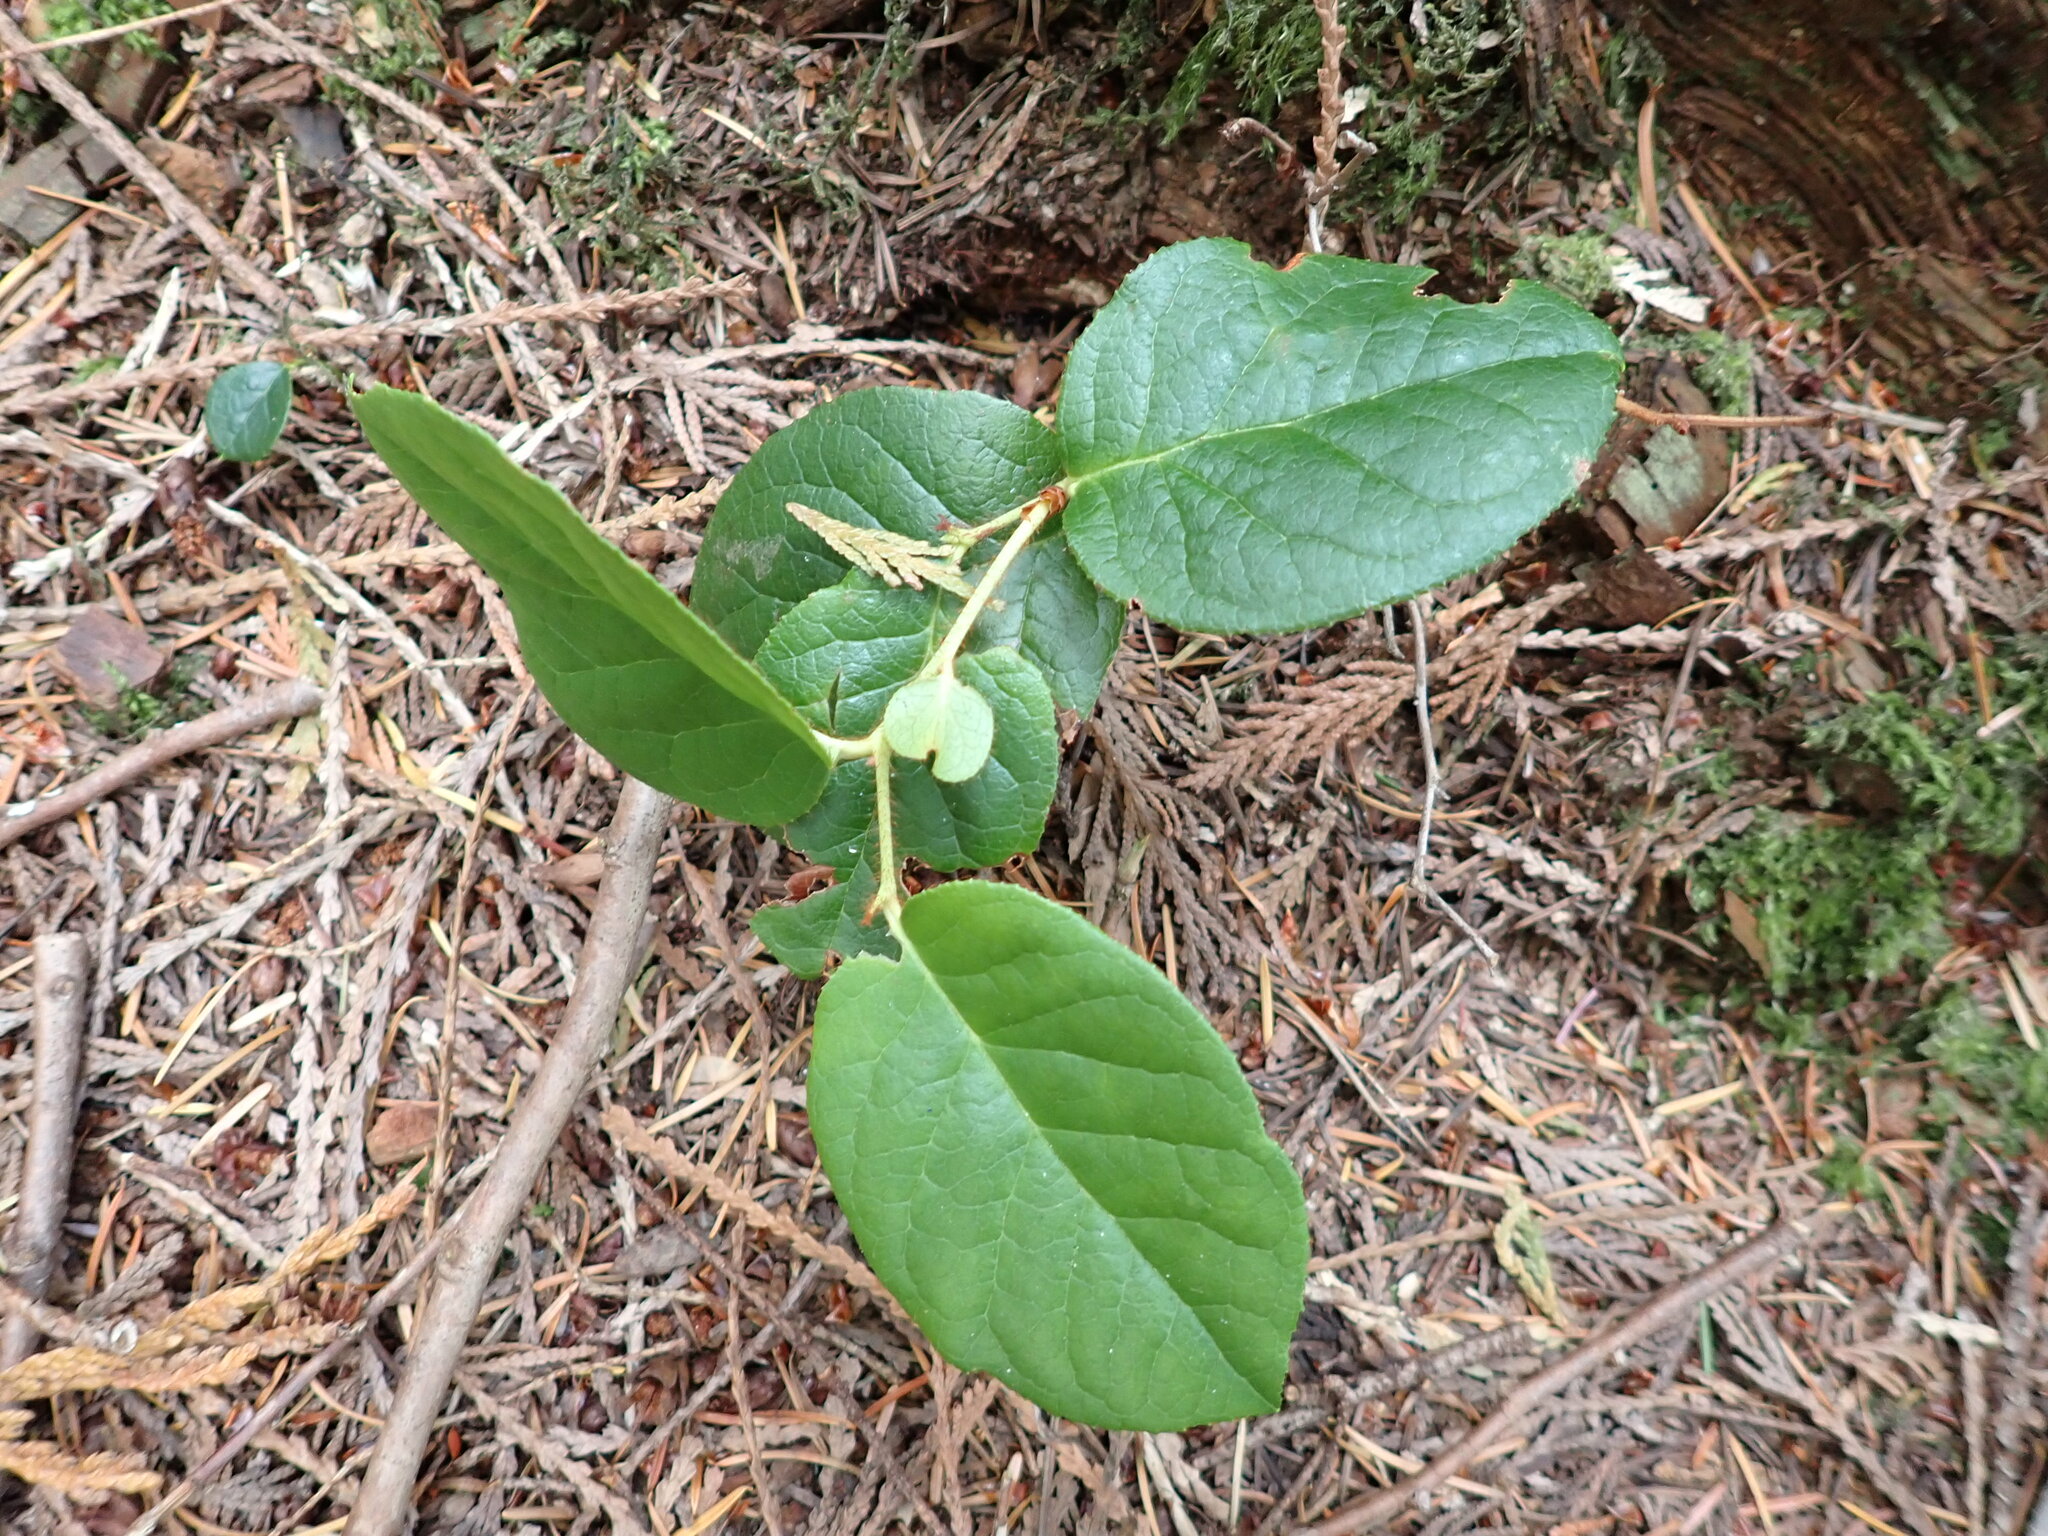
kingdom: Plantae
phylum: Tracheophyta
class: Magnoliopsida
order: Ericales
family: Ericaceae
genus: Gaultheria
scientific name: Gaultheria shallon
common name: Shallon
